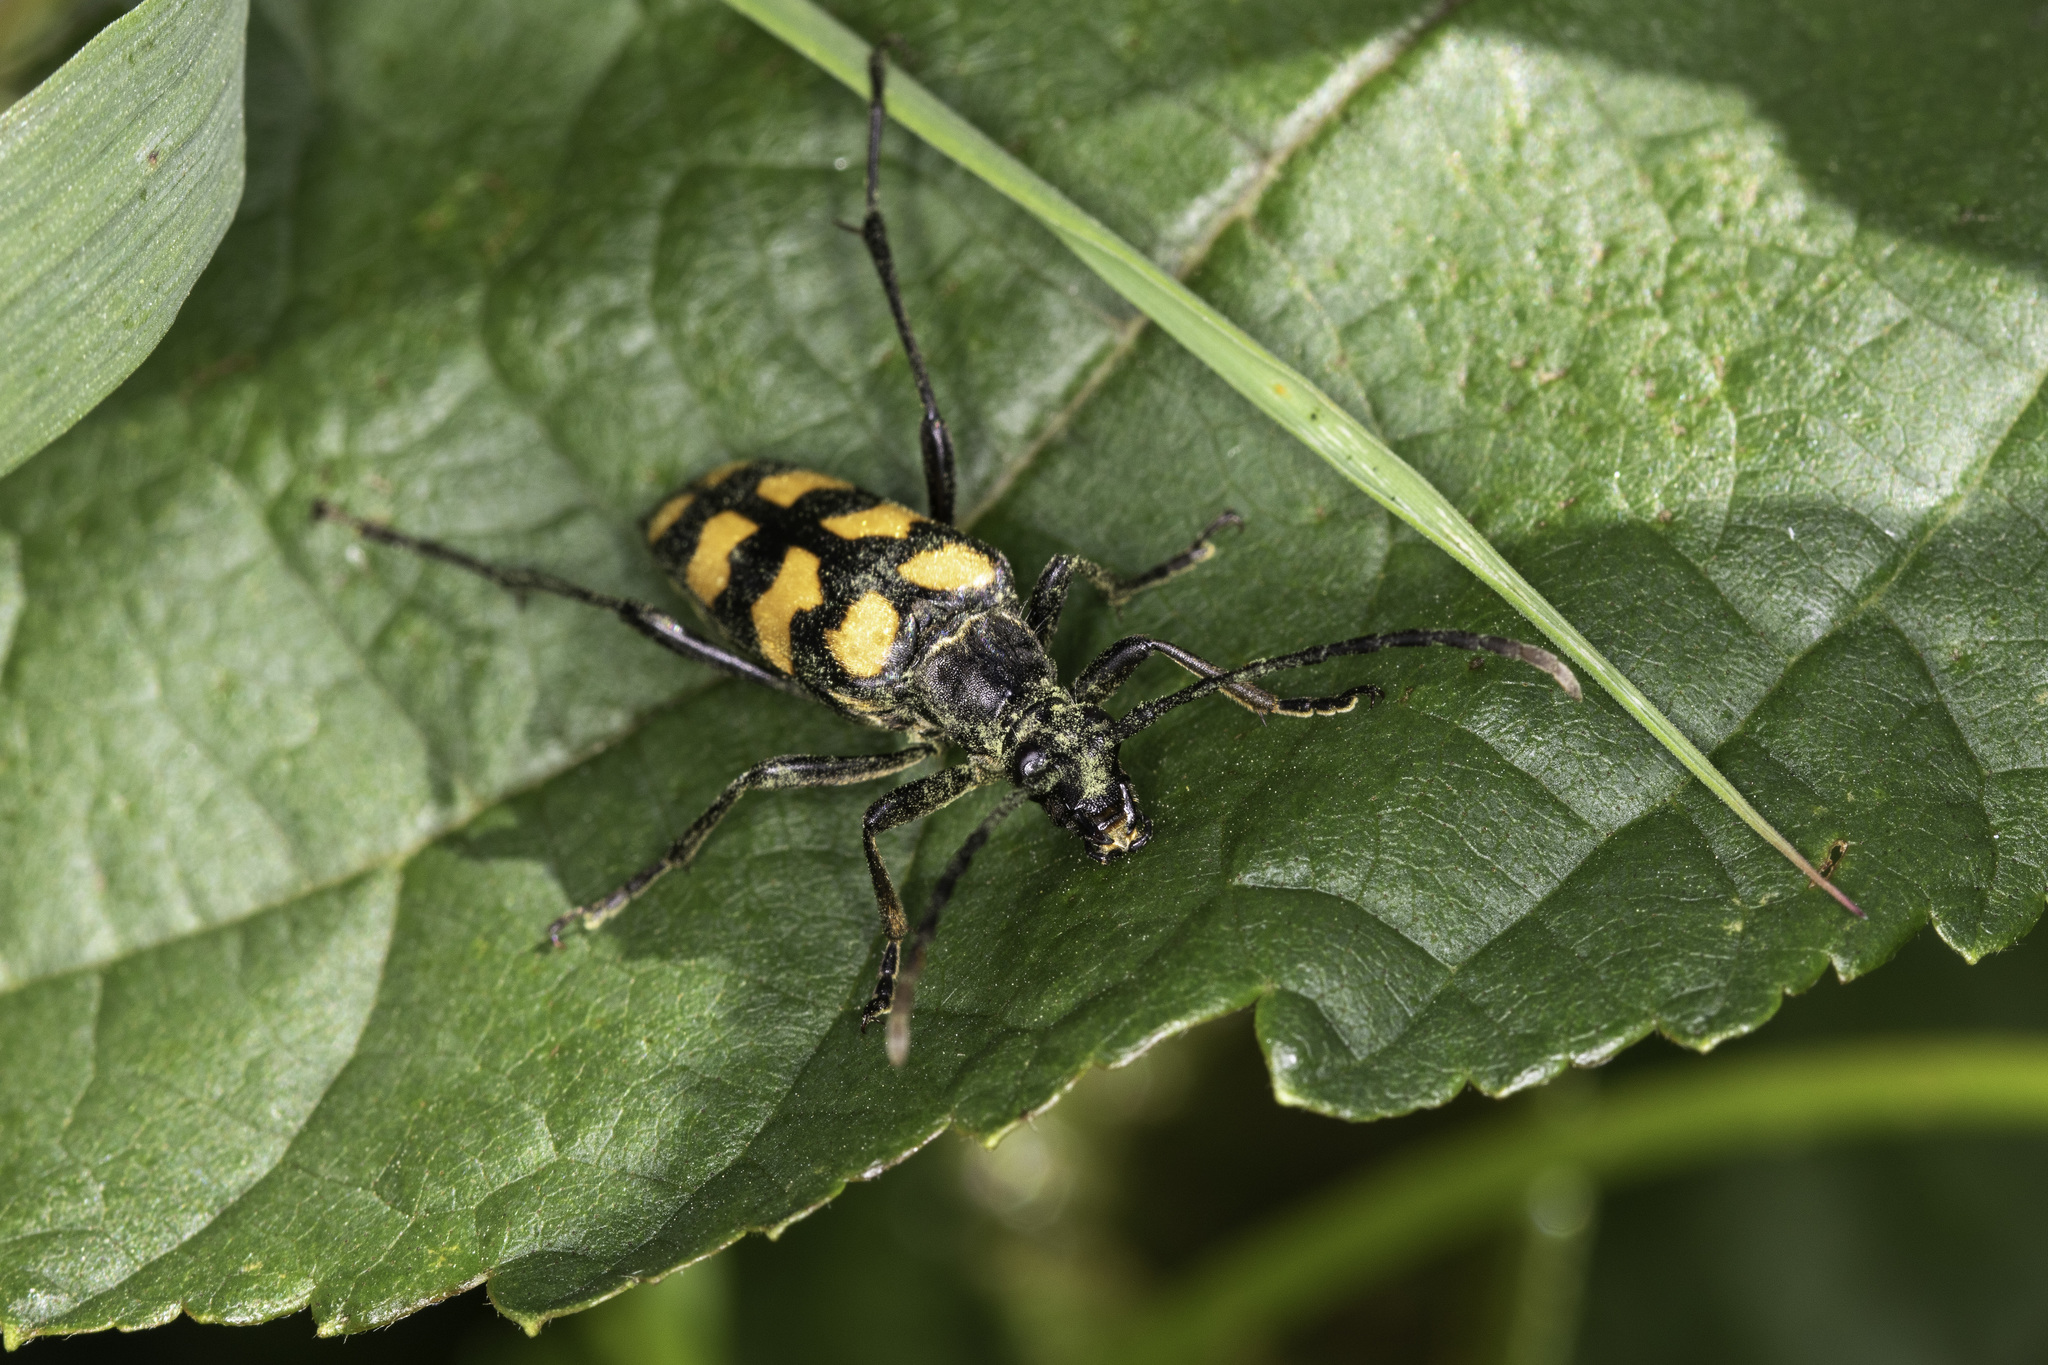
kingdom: Animalia
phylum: Arthropoda
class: Insecta
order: Coleoptera
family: Cerambycidae
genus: Leptura
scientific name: Leptura quadrifasciata
